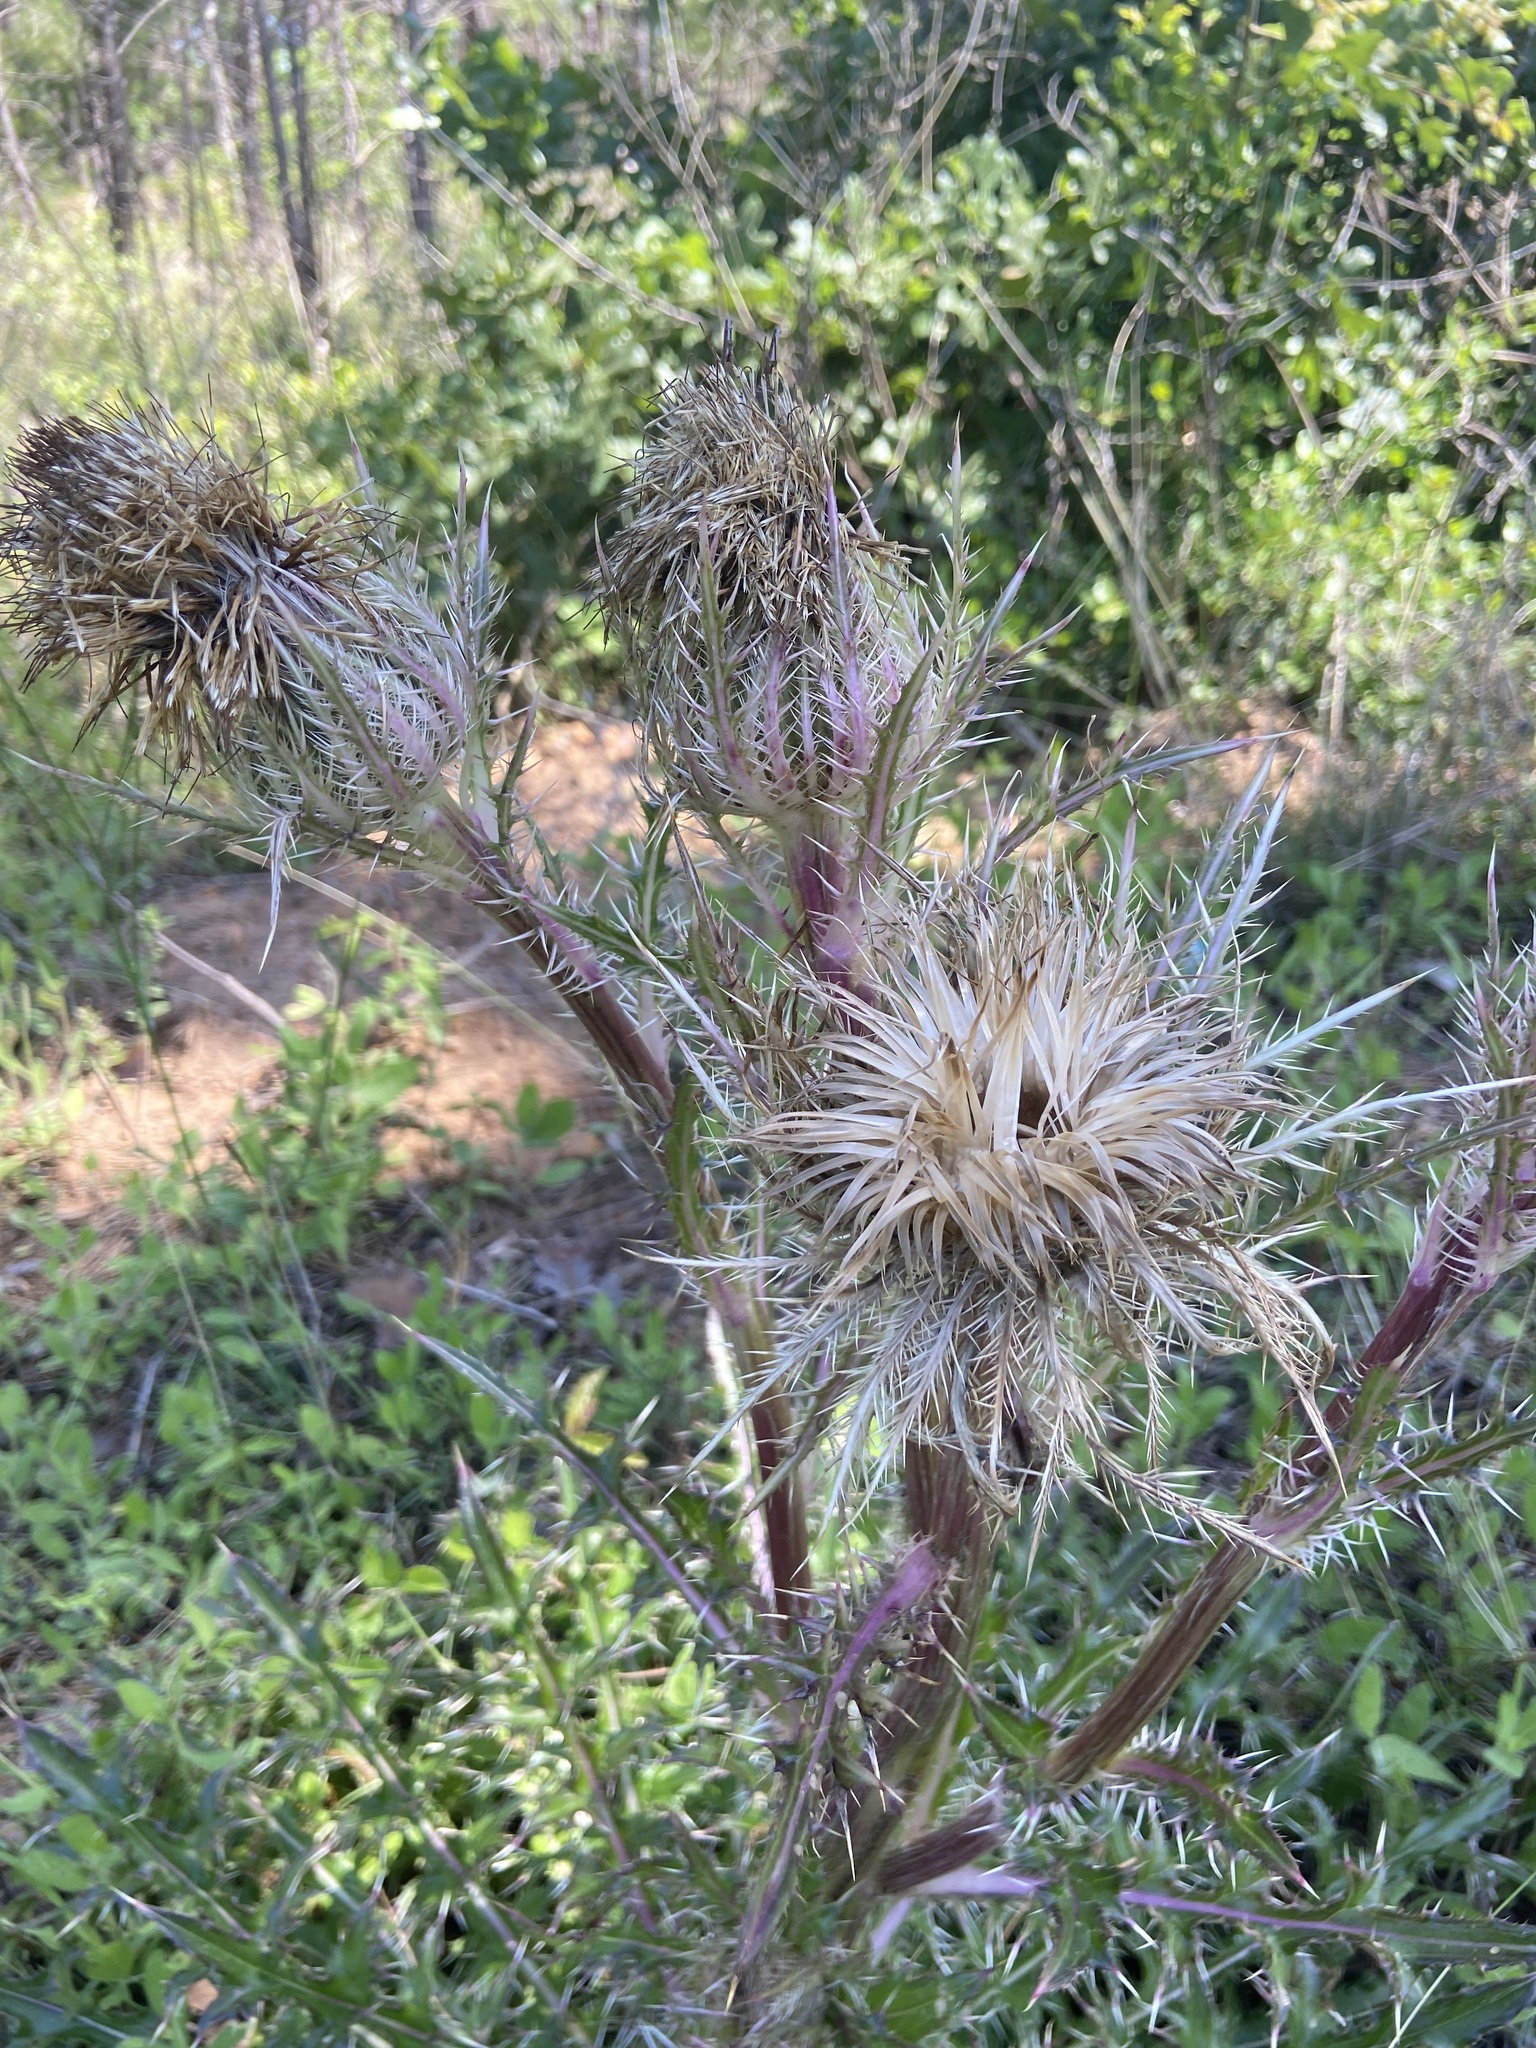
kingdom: Plantae
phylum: Tracheophyta
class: Magnoliopsida
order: Asterales
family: Asteraceae
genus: Cirsium
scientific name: Cirsium horridulum
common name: Bristly thistle
